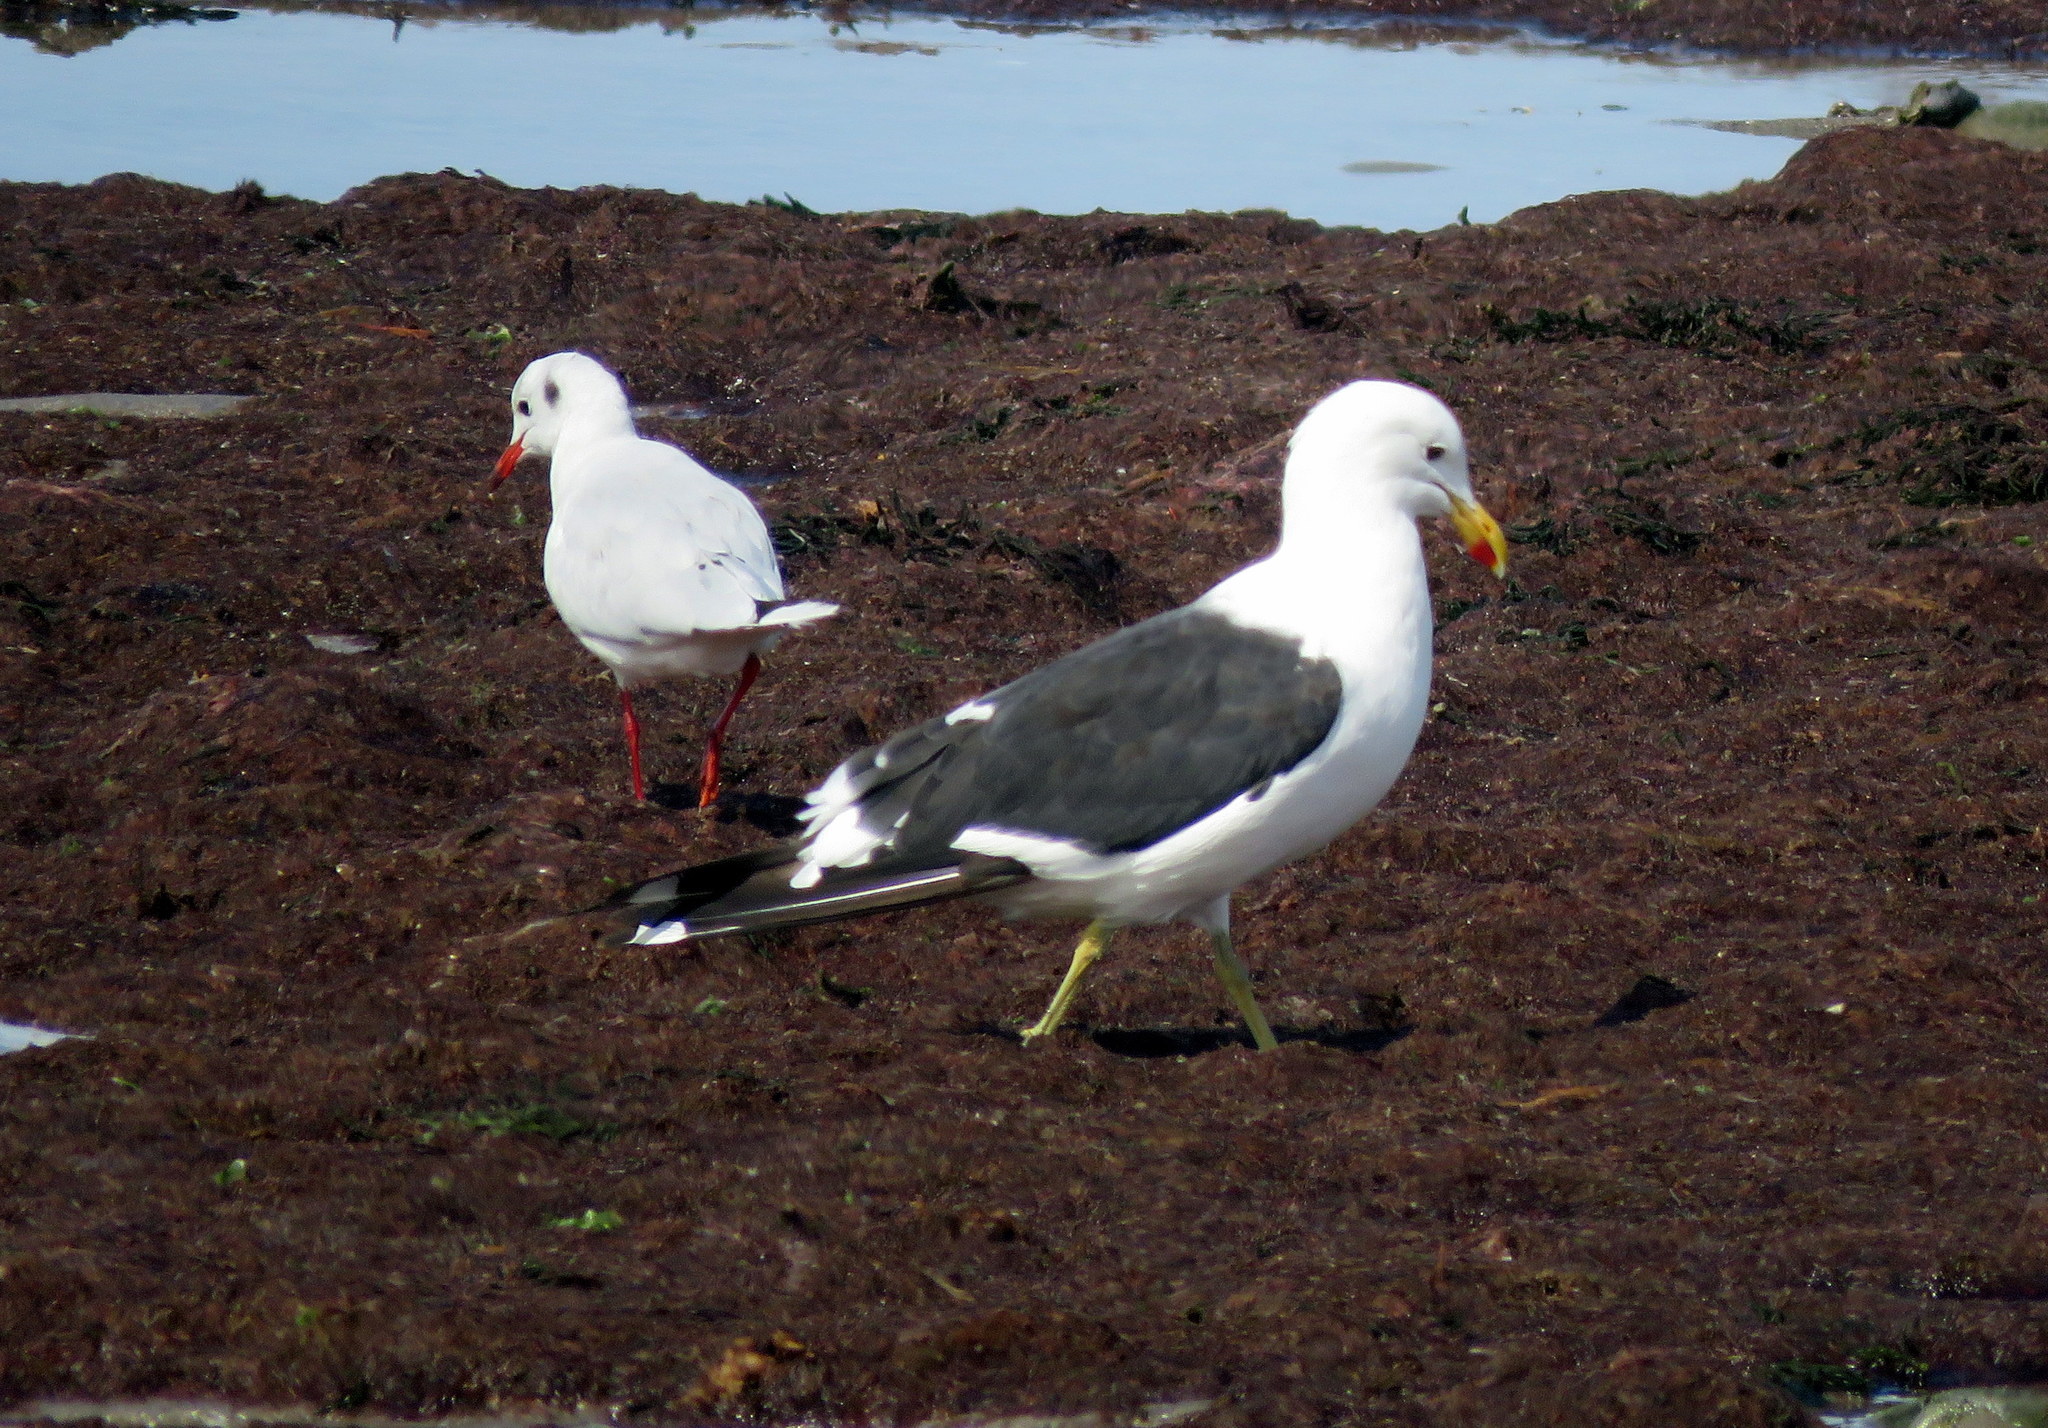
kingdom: Animalia
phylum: Chordata
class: Aves
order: Charadriiformes
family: Laridae
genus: Larus
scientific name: Larus dominicanus
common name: Kelp gull
